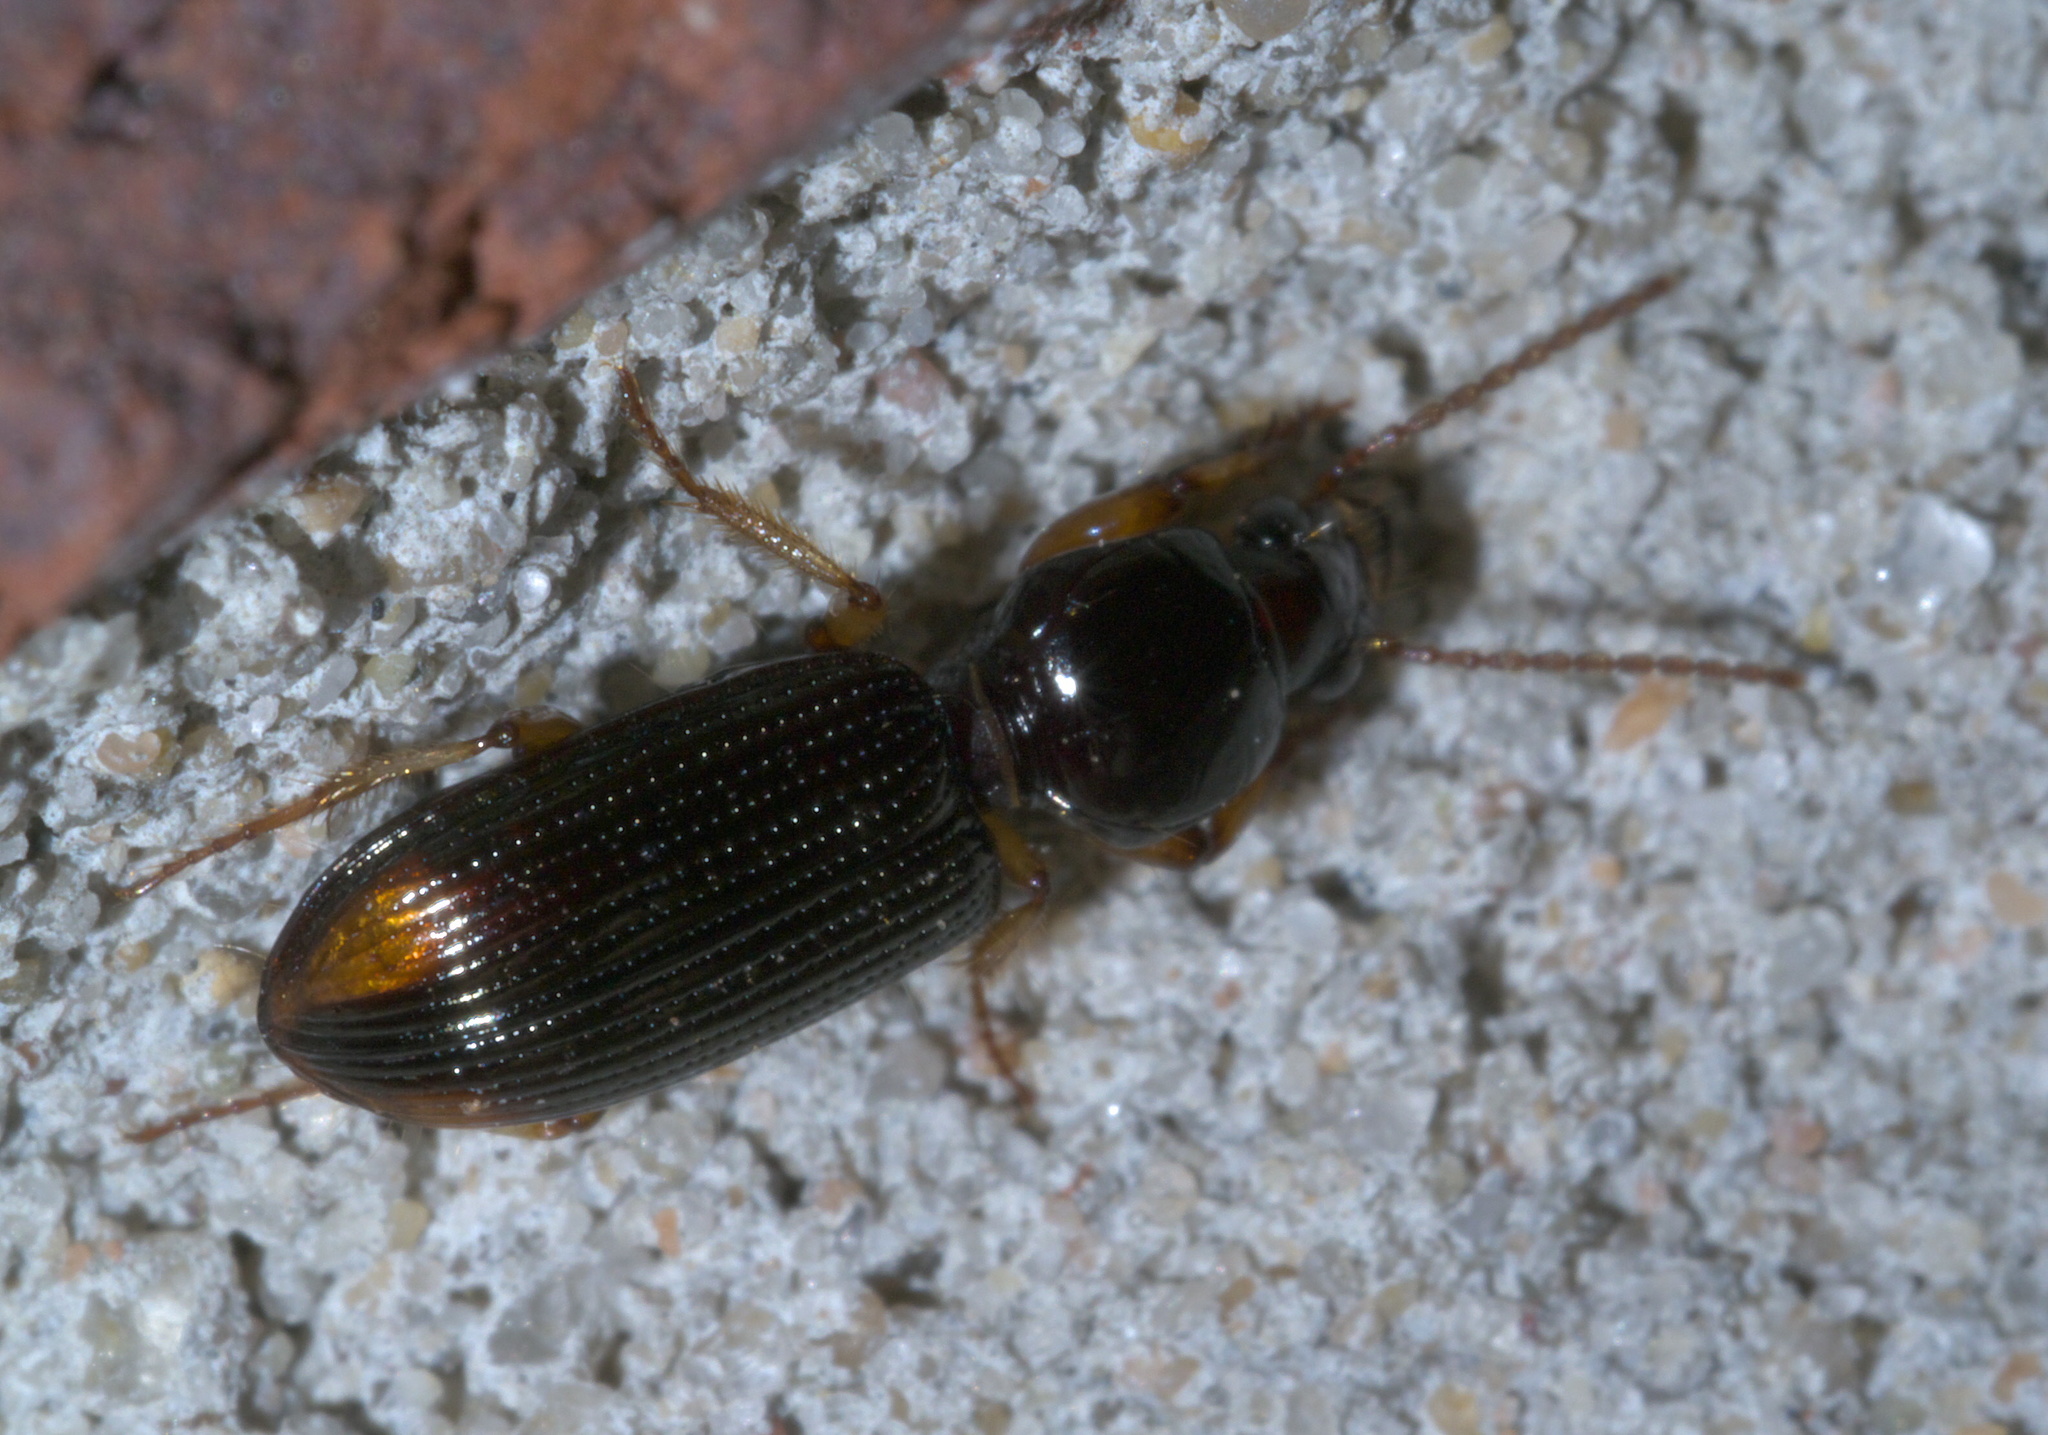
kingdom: Animalia
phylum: Arthropoda
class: Insecta
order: Coleoptera
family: Carabidae
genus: Aspidoglossa
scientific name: Aspidoglossa subangulata
